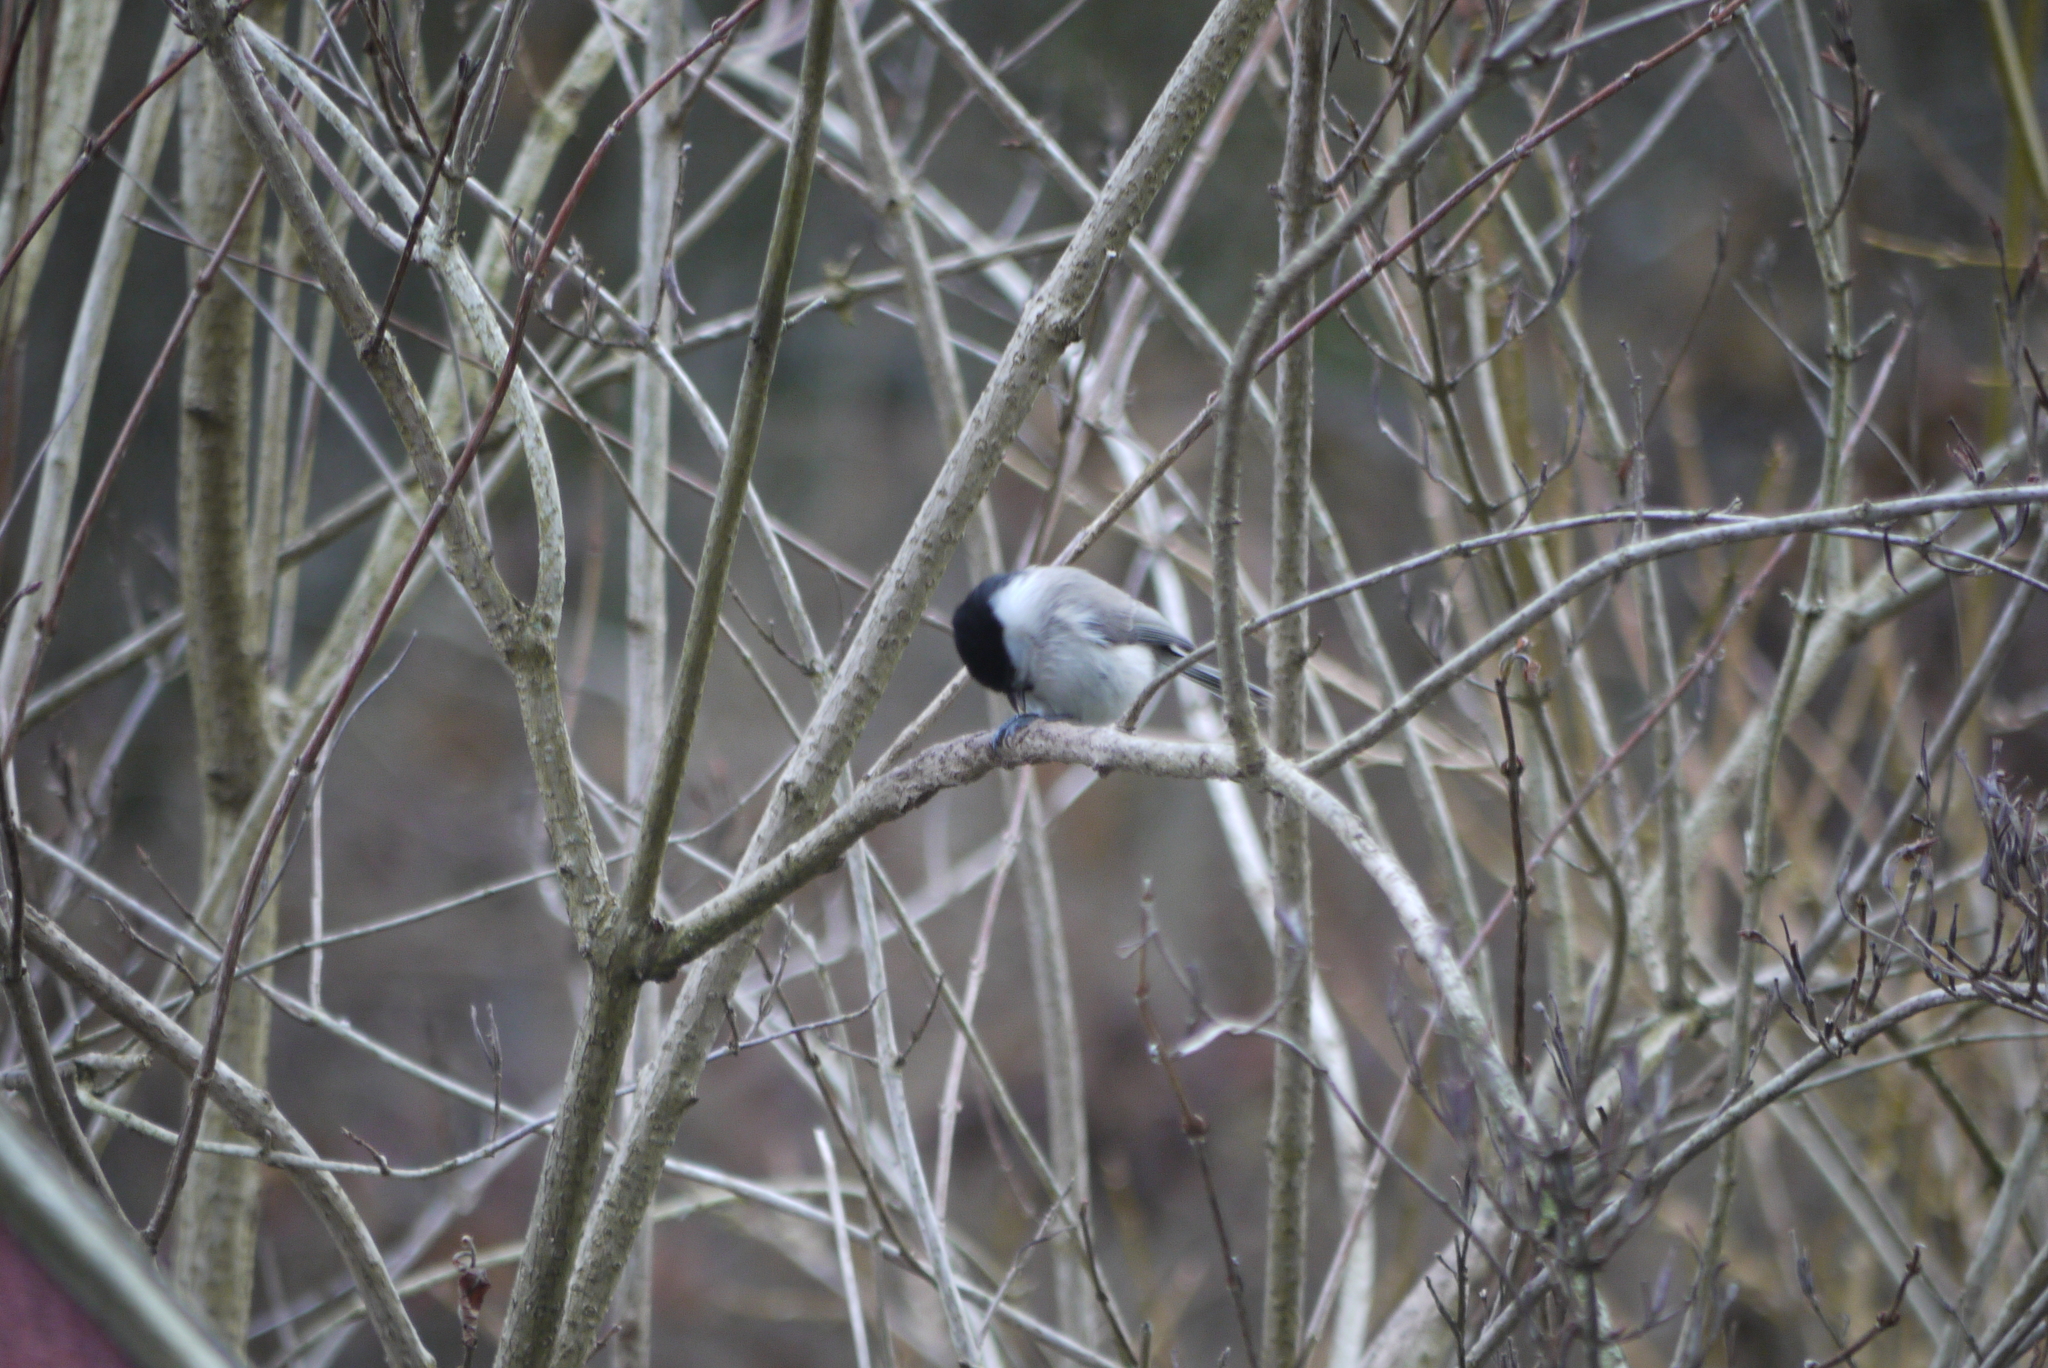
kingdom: Animalia
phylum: Chordata
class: Aves
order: Passeriformes
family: Paridae
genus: Poecile
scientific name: Poecile palustris
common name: Marsh tit
